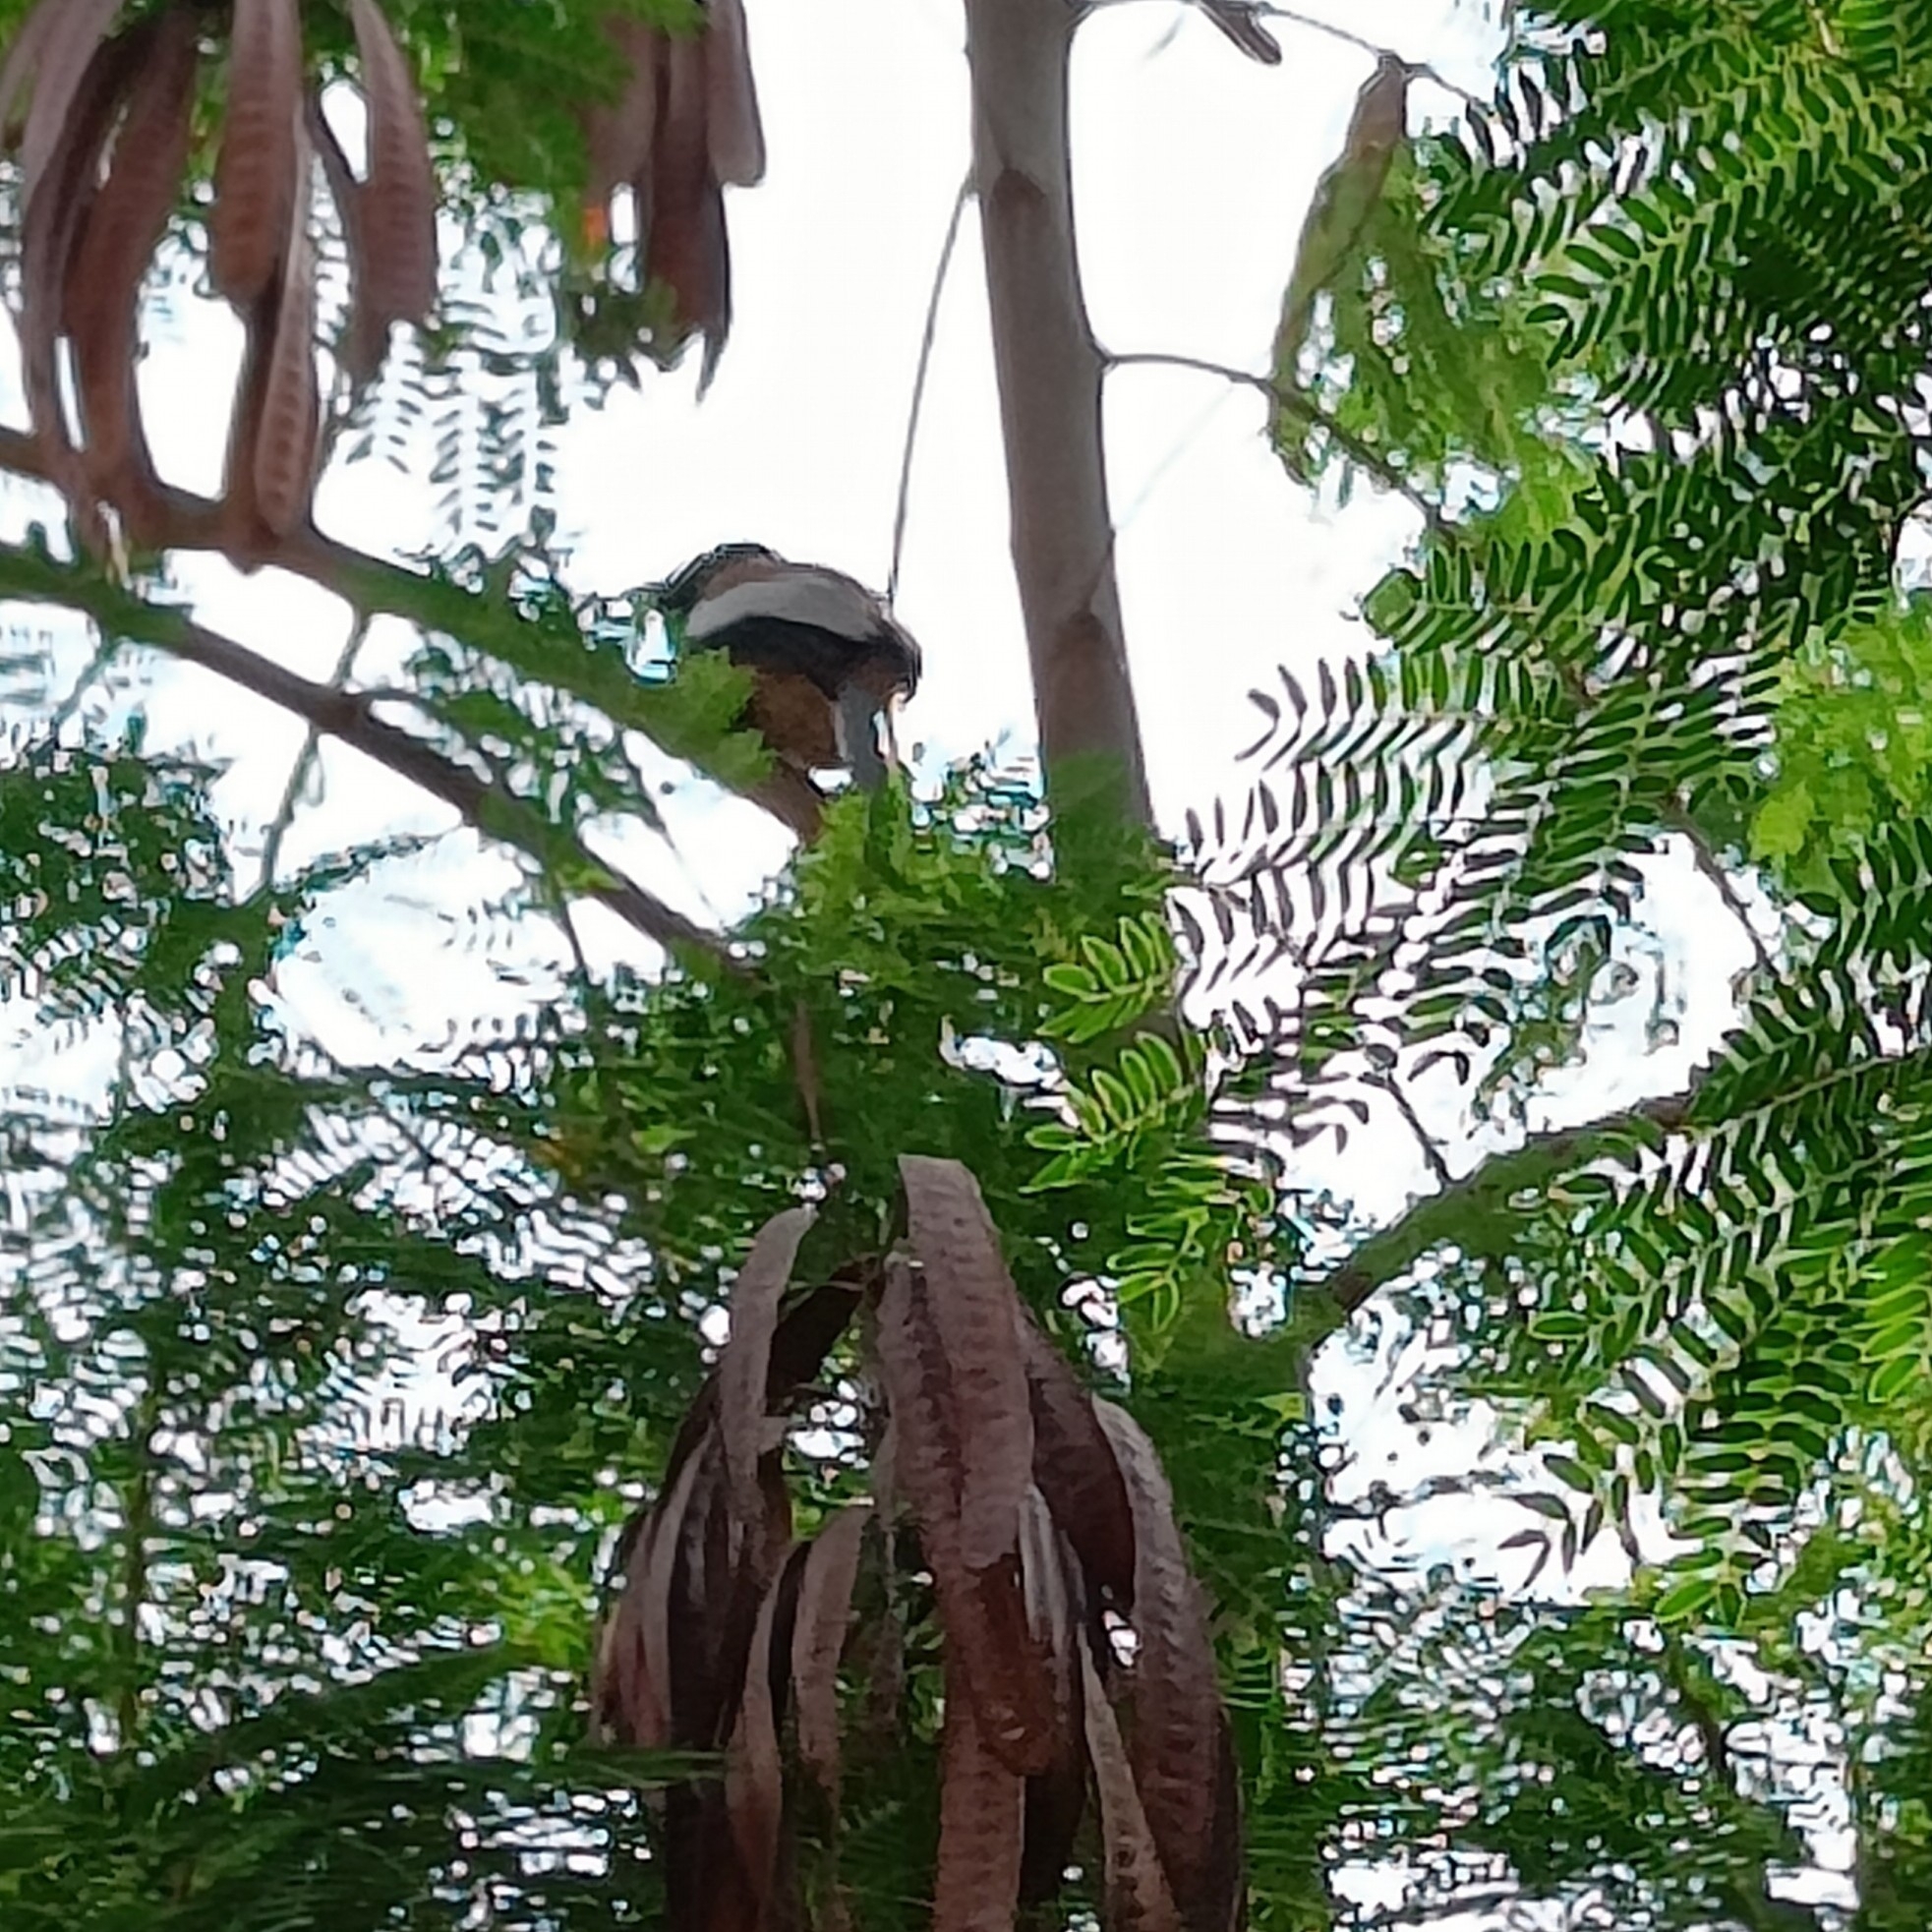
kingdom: Animalia
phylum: Chordata
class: Aves
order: Passeriformes
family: Corvidae
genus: Dendrocitta
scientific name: Dendrocitta vagabunda
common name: Rufous treepie
